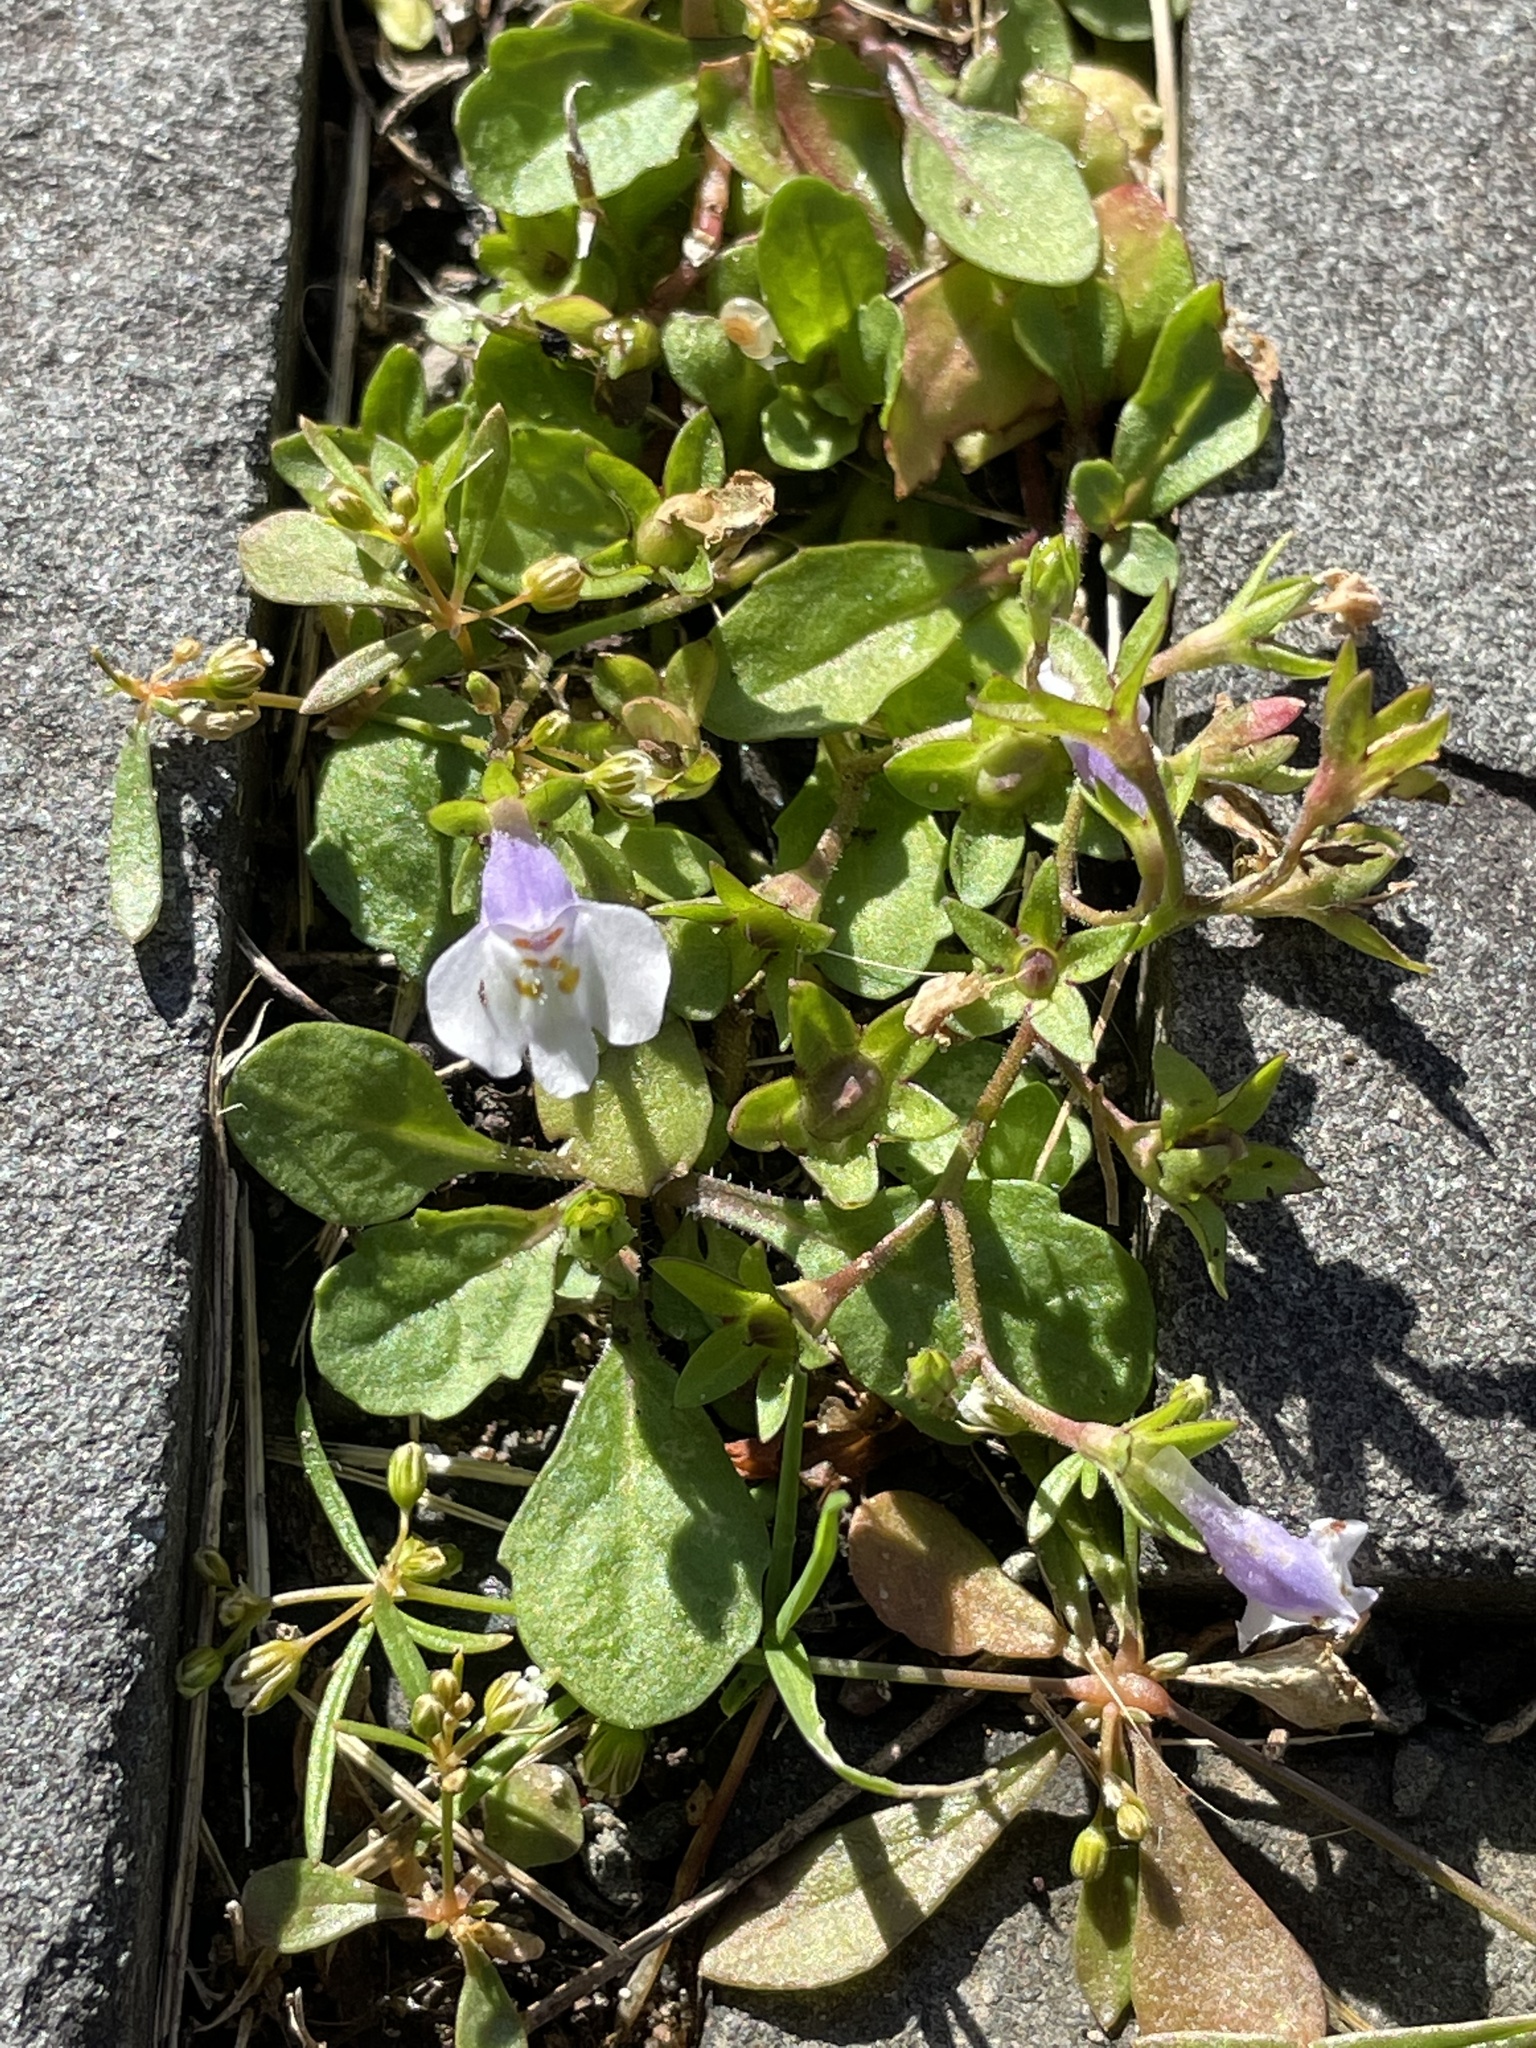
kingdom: Plantae
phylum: Tracheophyta
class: Magnoliopsida
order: Lamiales
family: Mazaceae
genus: Mazus
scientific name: Mazus pumilus
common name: Japanese mazus
